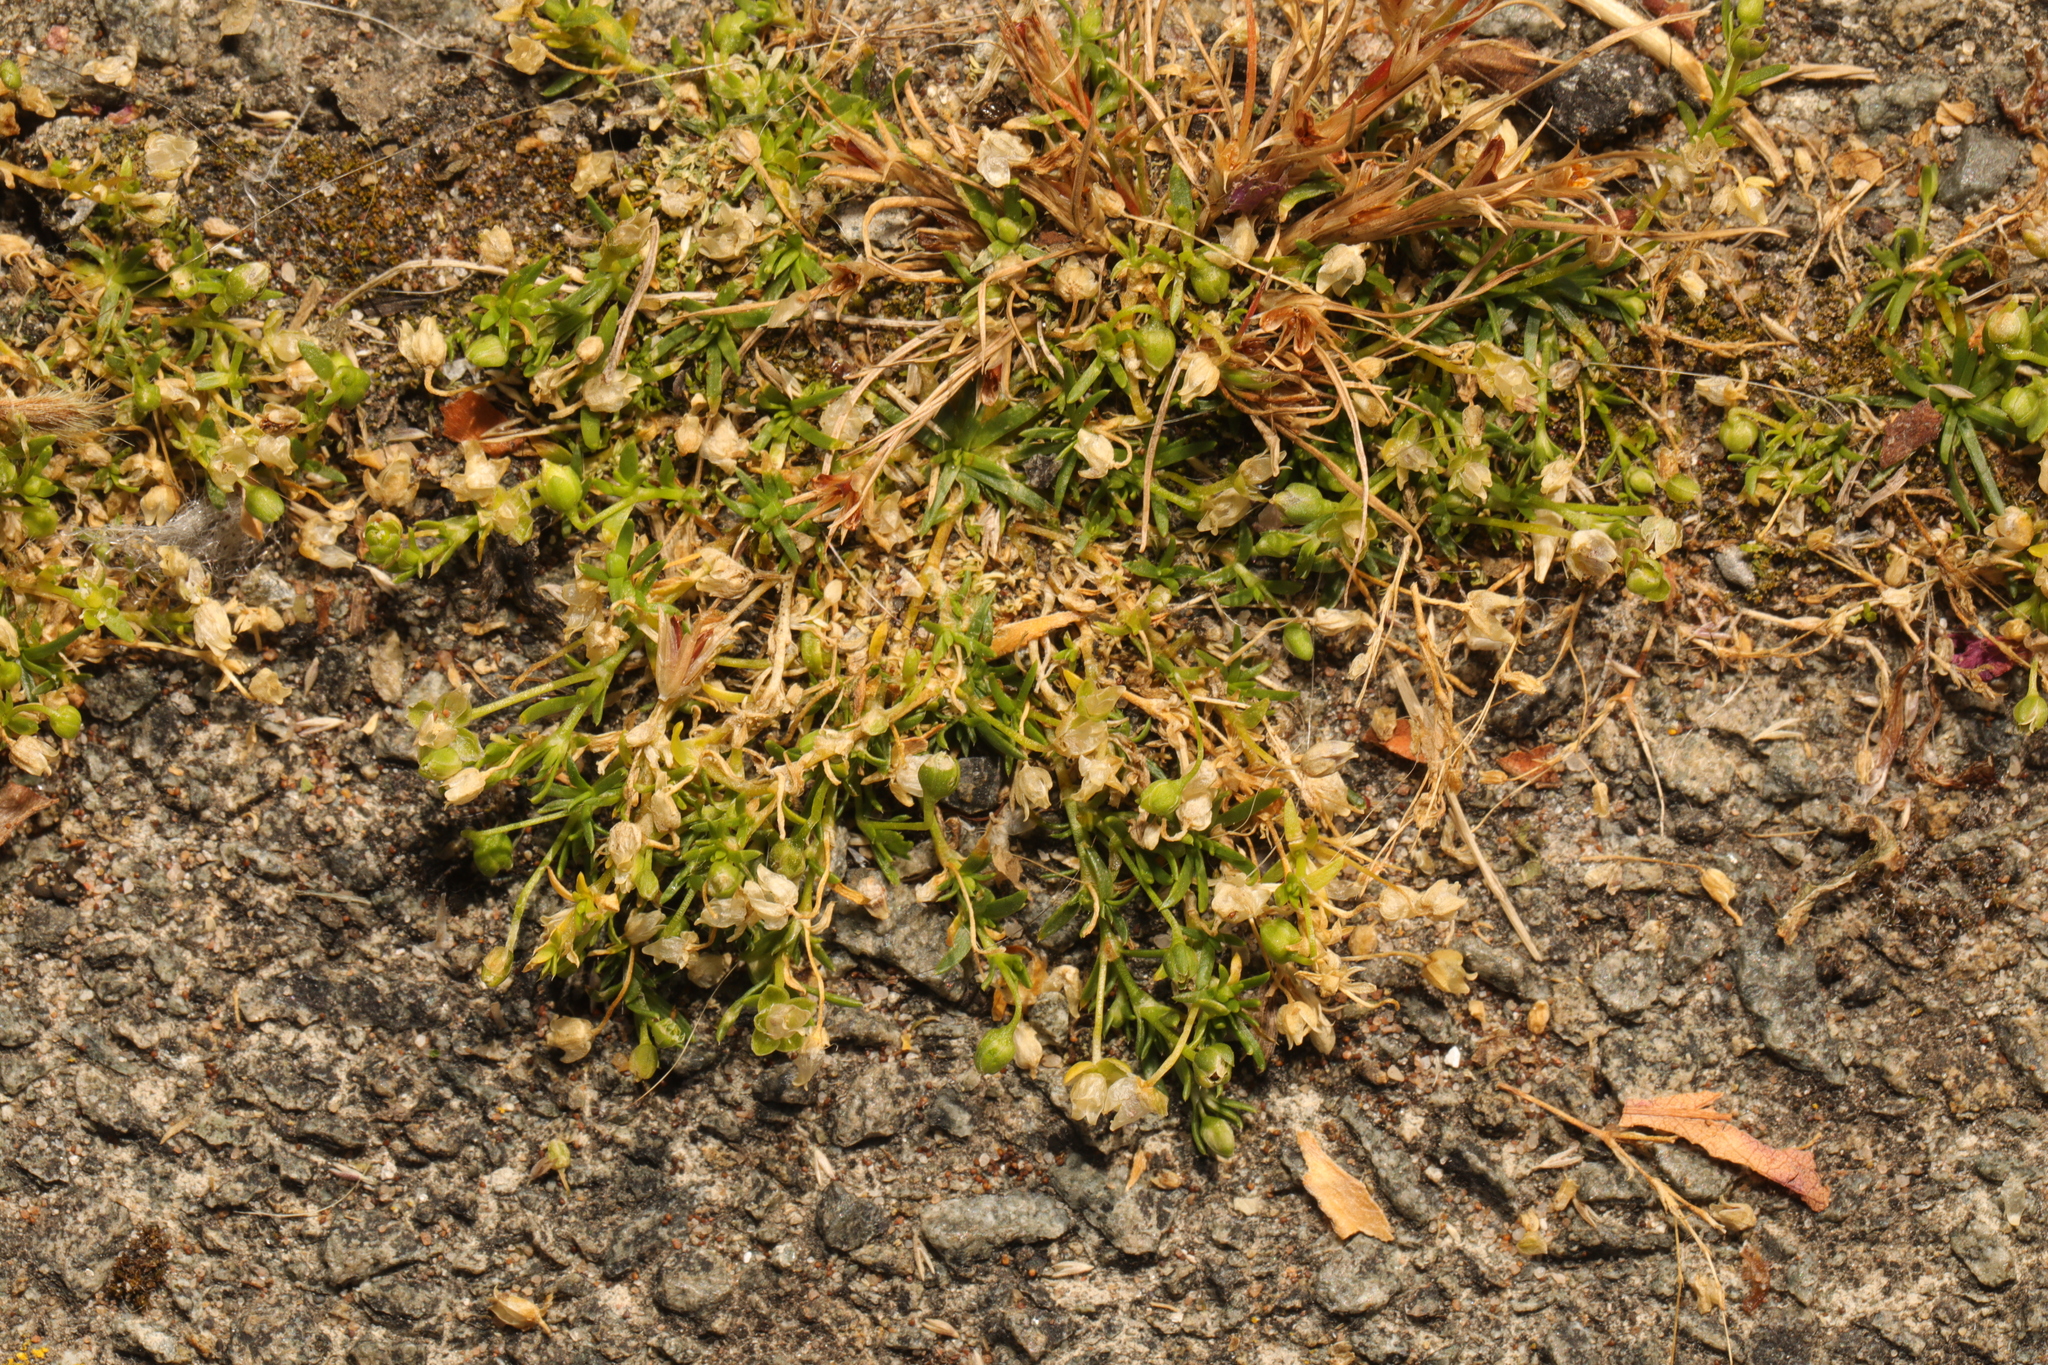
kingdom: Plantae
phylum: Tracheophyta
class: Magnoliopsida
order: Caryophyllales
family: Caryophyllaceae
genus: Sagina
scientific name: Sagina procumbens
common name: Procumbent pearlwort
